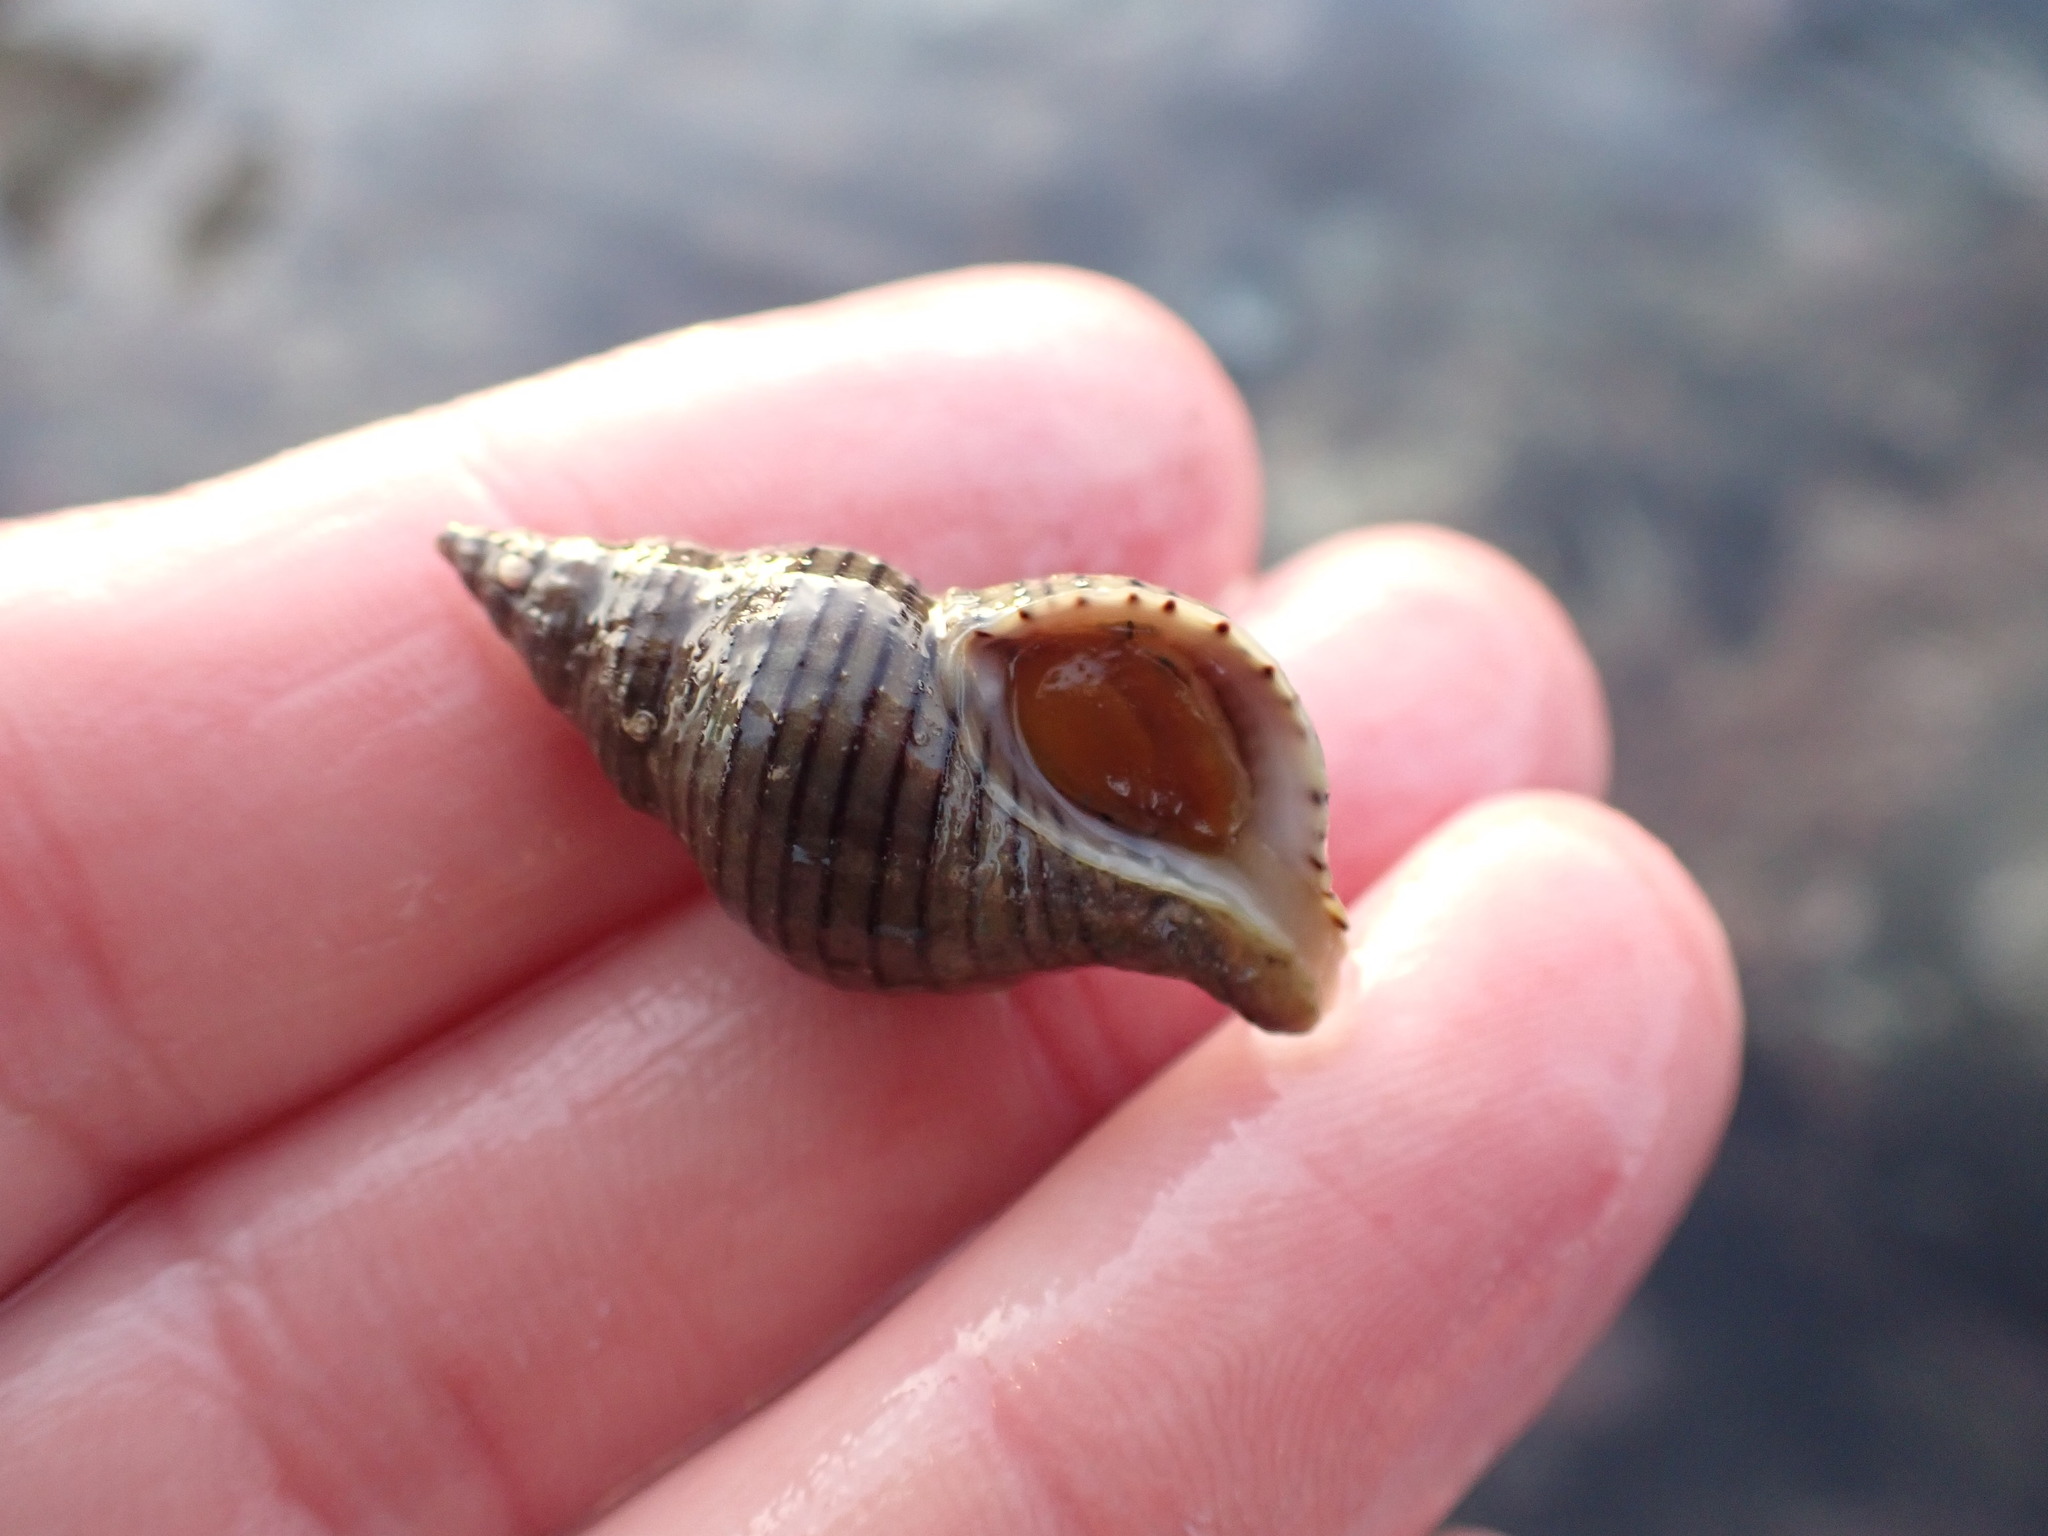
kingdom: Animalia
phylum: Mollusca
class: Gastropoda
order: Neogastropoda
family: Tudiclidae
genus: Buccinulum
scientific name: Buccinulum linea
